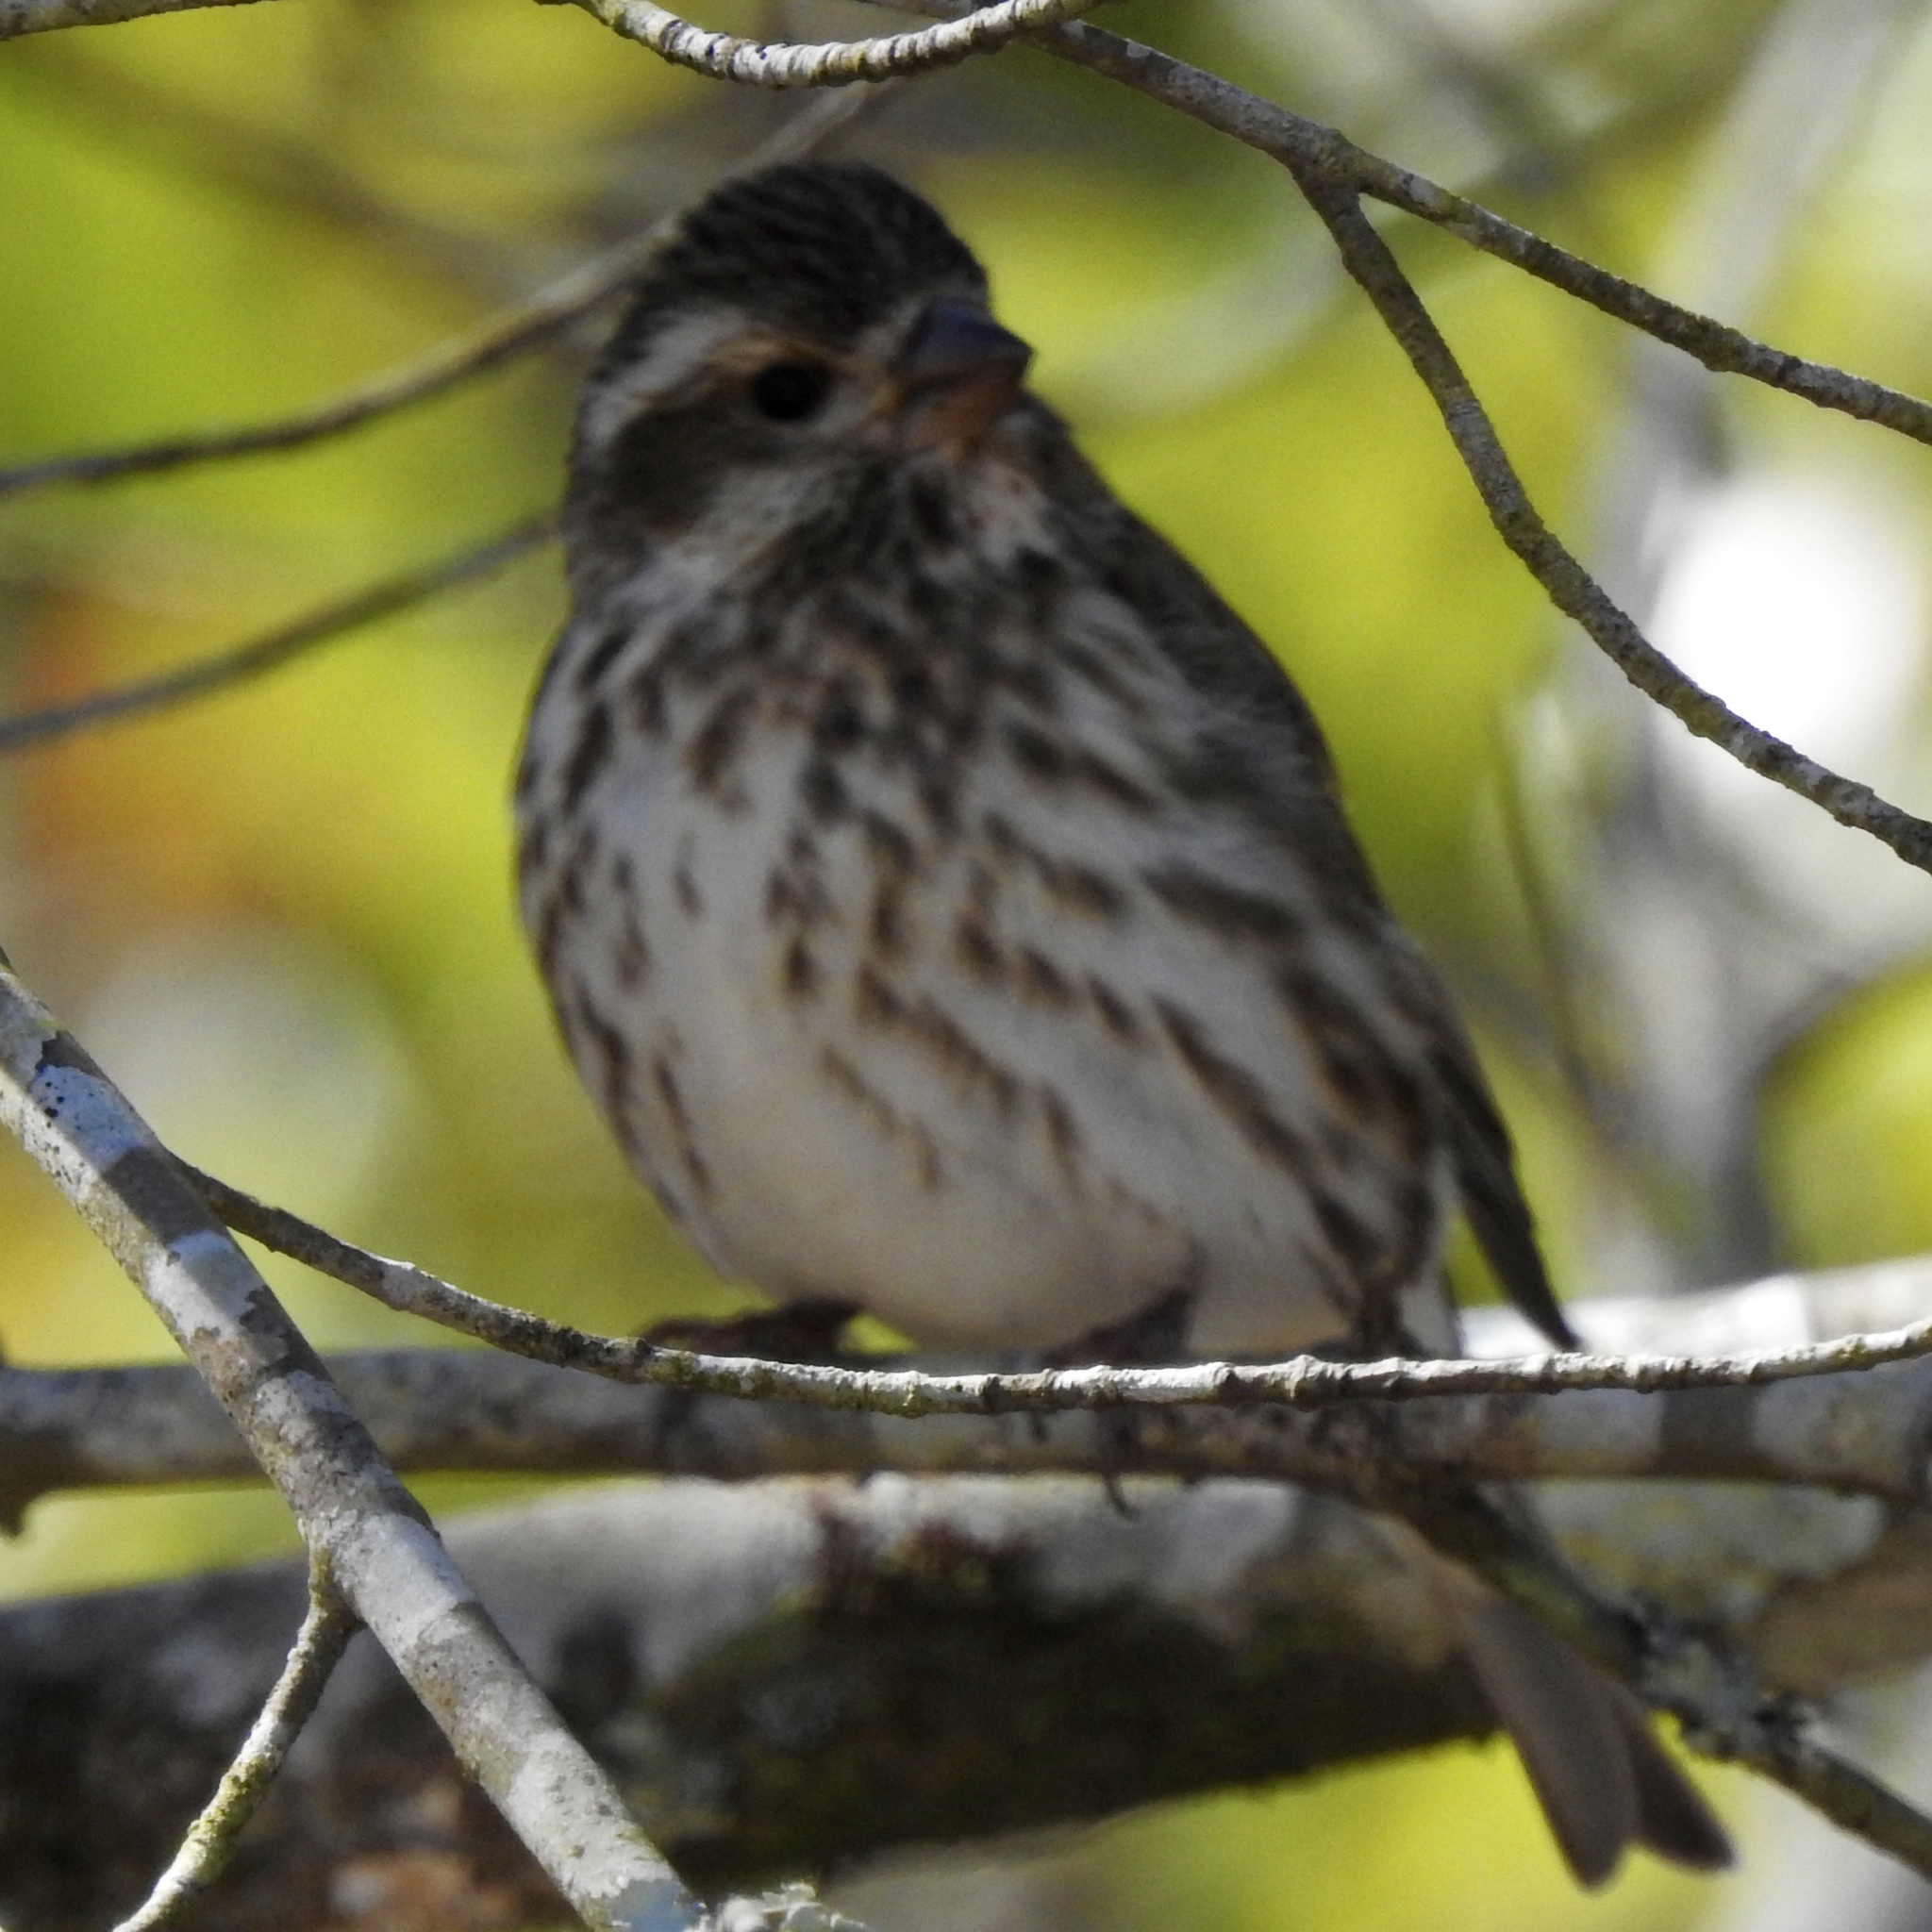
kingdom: Animalia
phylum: Chordata
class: Aves
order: Passeriformes
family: Fringillidae
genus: Haemorhous
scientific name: Haemorhous purpureus
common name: Purple finch
